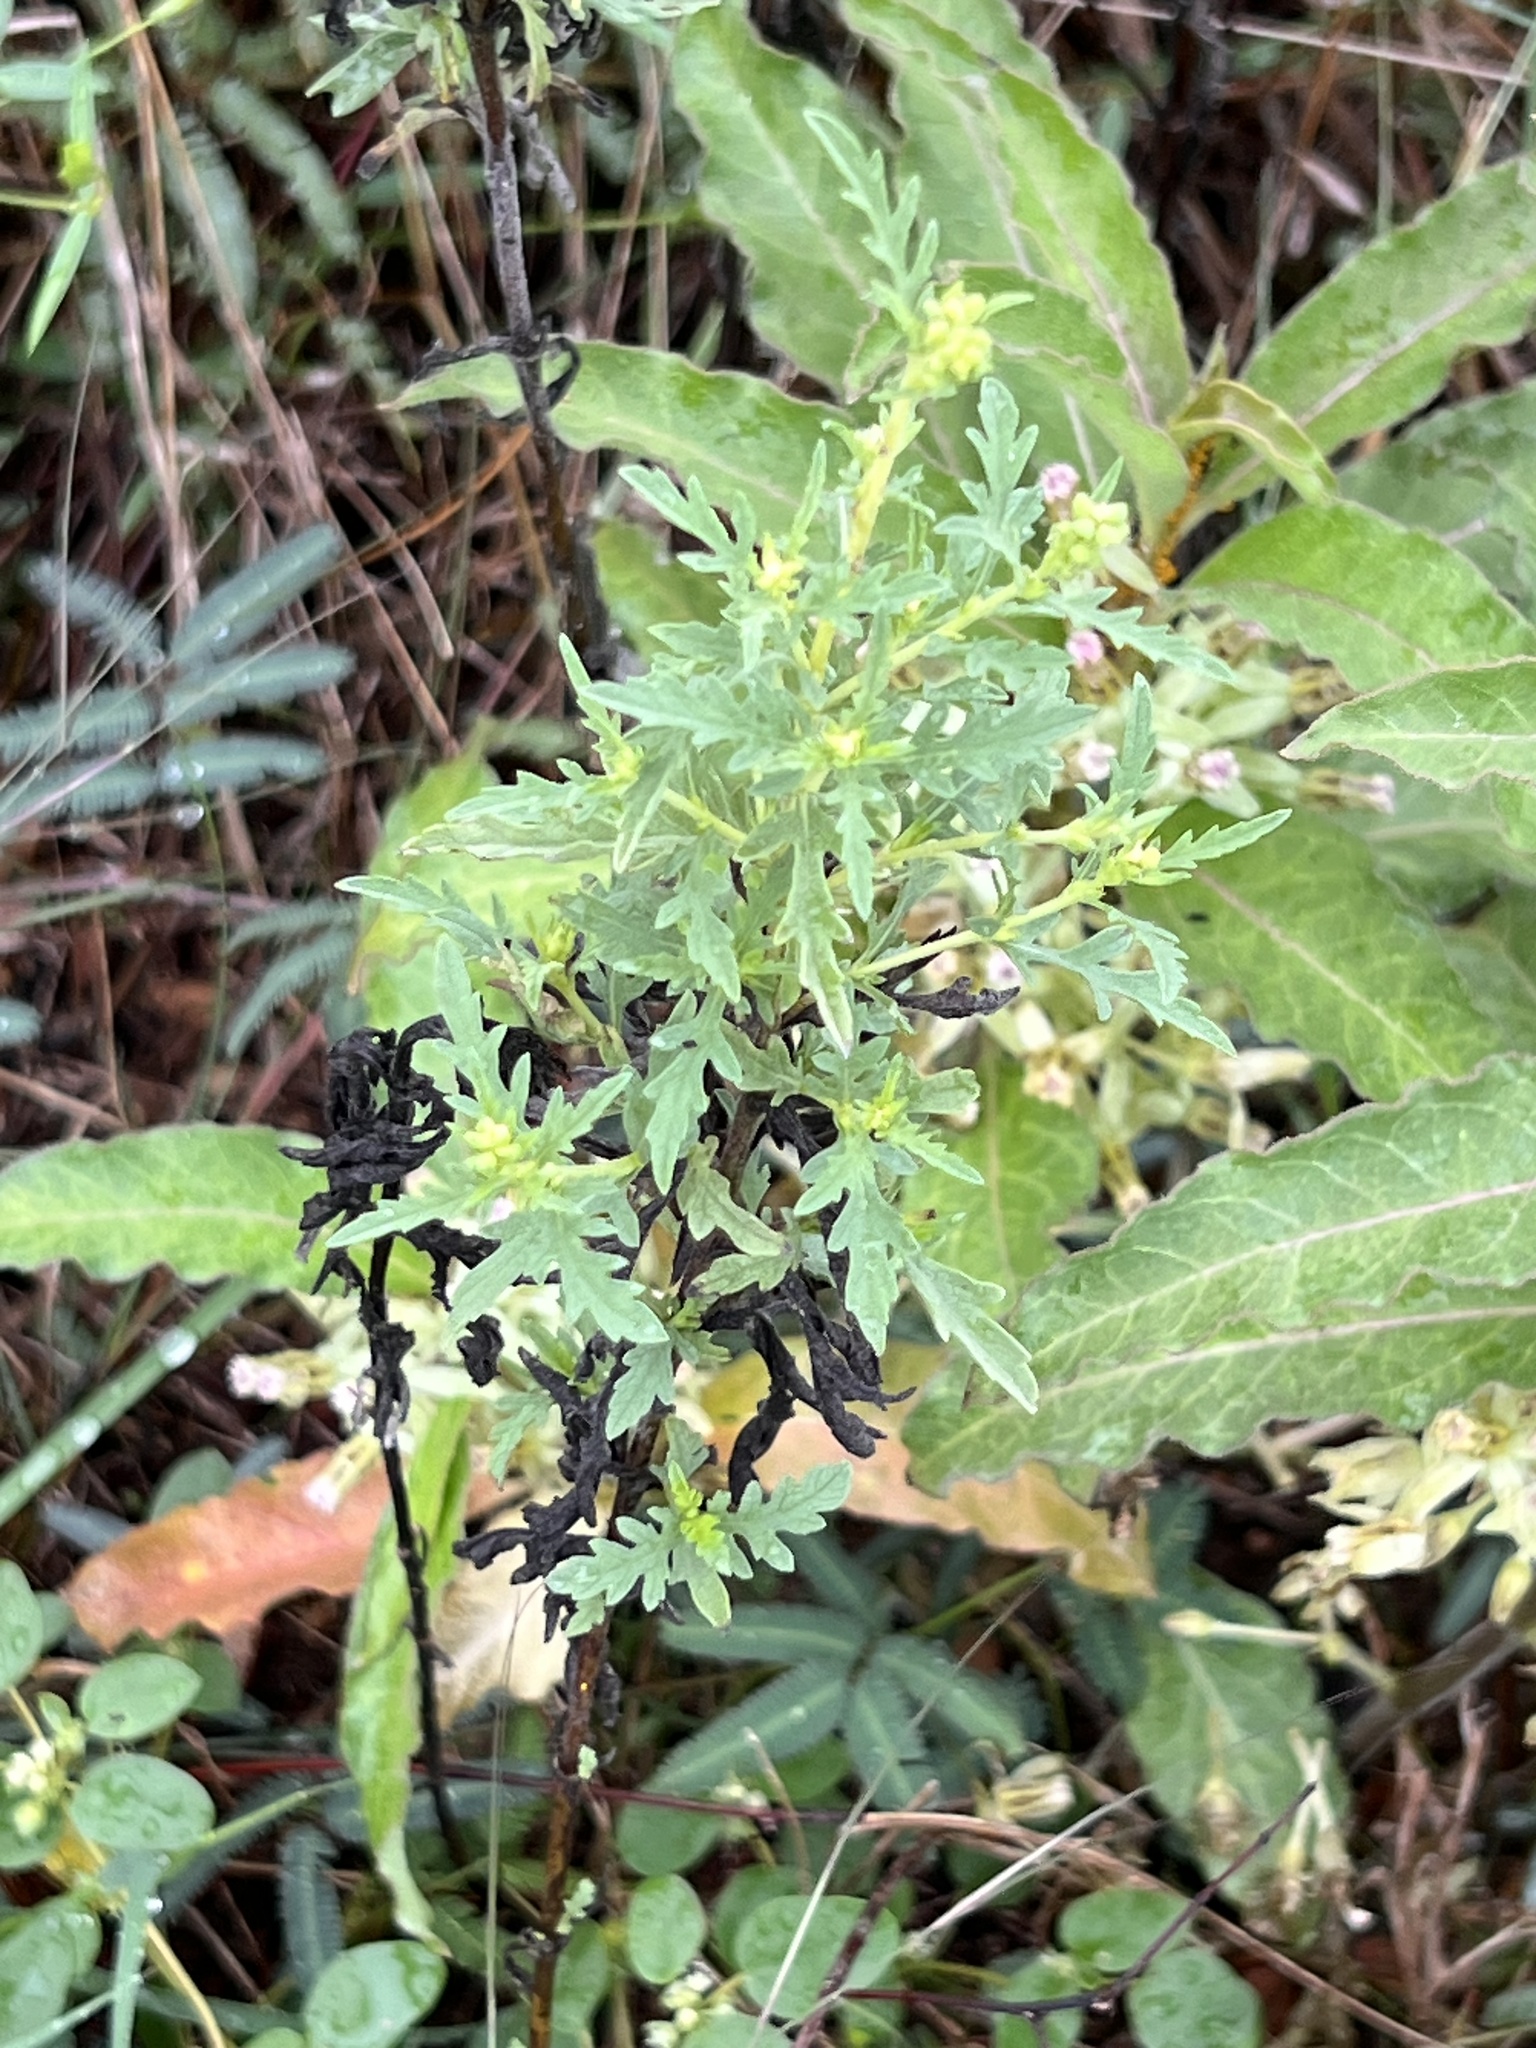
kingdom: Plantae
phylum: Tracheophyta
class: Magnoliopsida
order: Asterales
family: Asteraceae
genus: Ambrosia
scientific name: Ambrosia psilostachya
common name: Perennial ragweed
